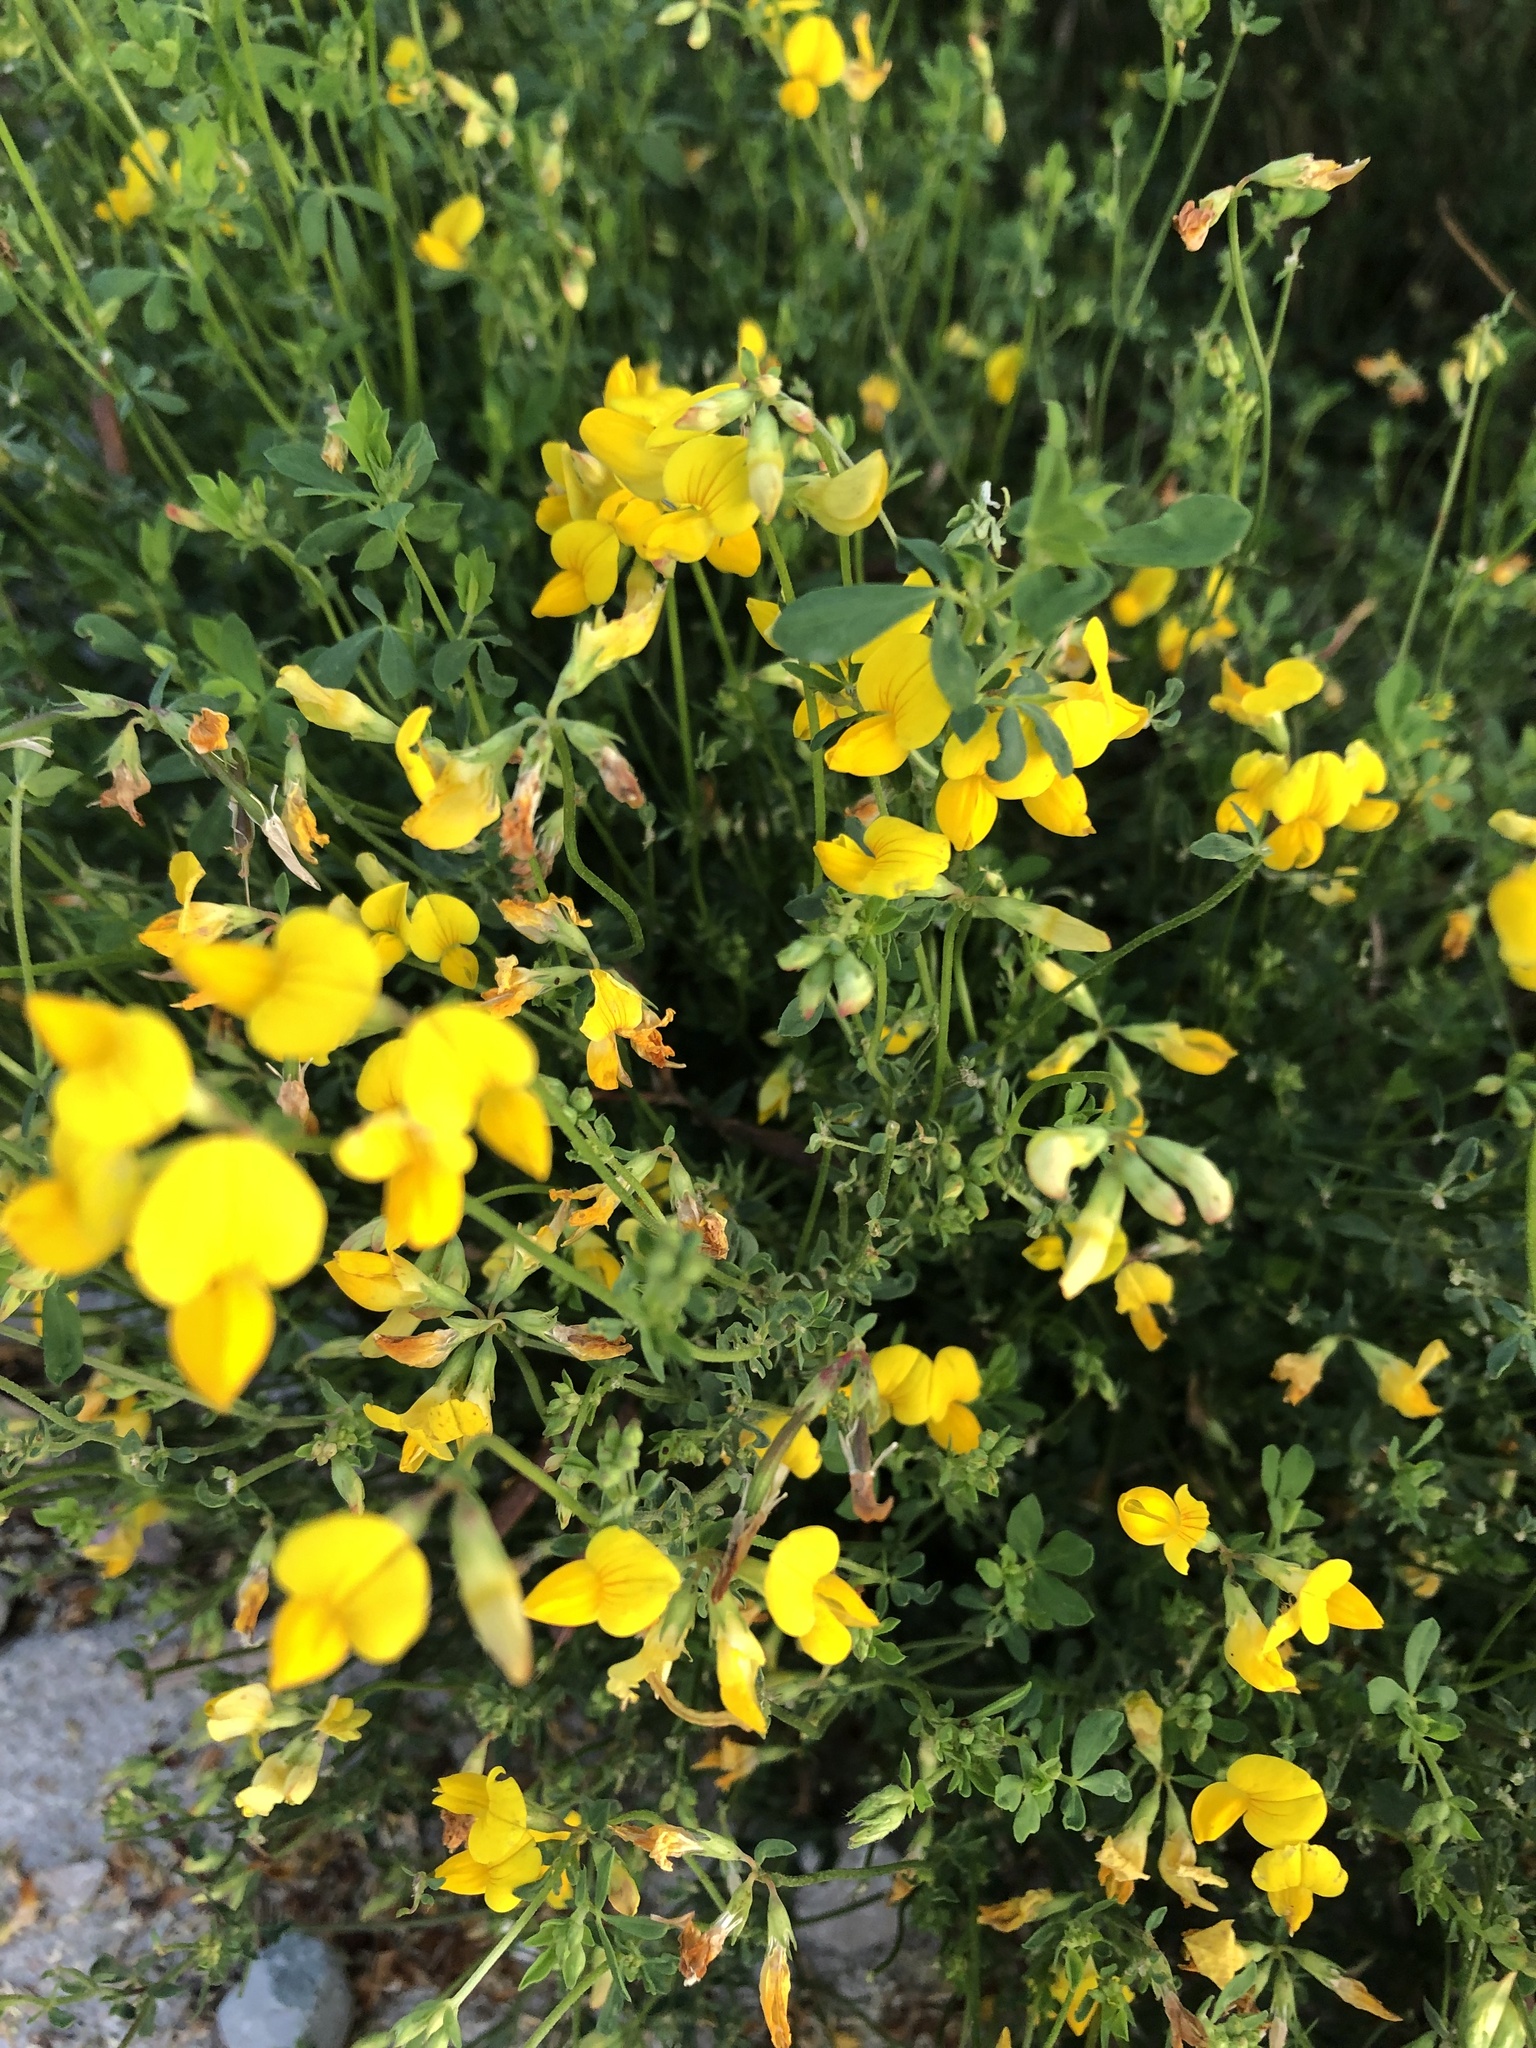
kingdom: Plantae
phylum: Tracheophyta
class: Magnoliopsida
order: Fabales
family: Fabaceae
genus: Lotus
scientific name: Lotus corniculatus
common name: Common bird's-foot-trefoil
